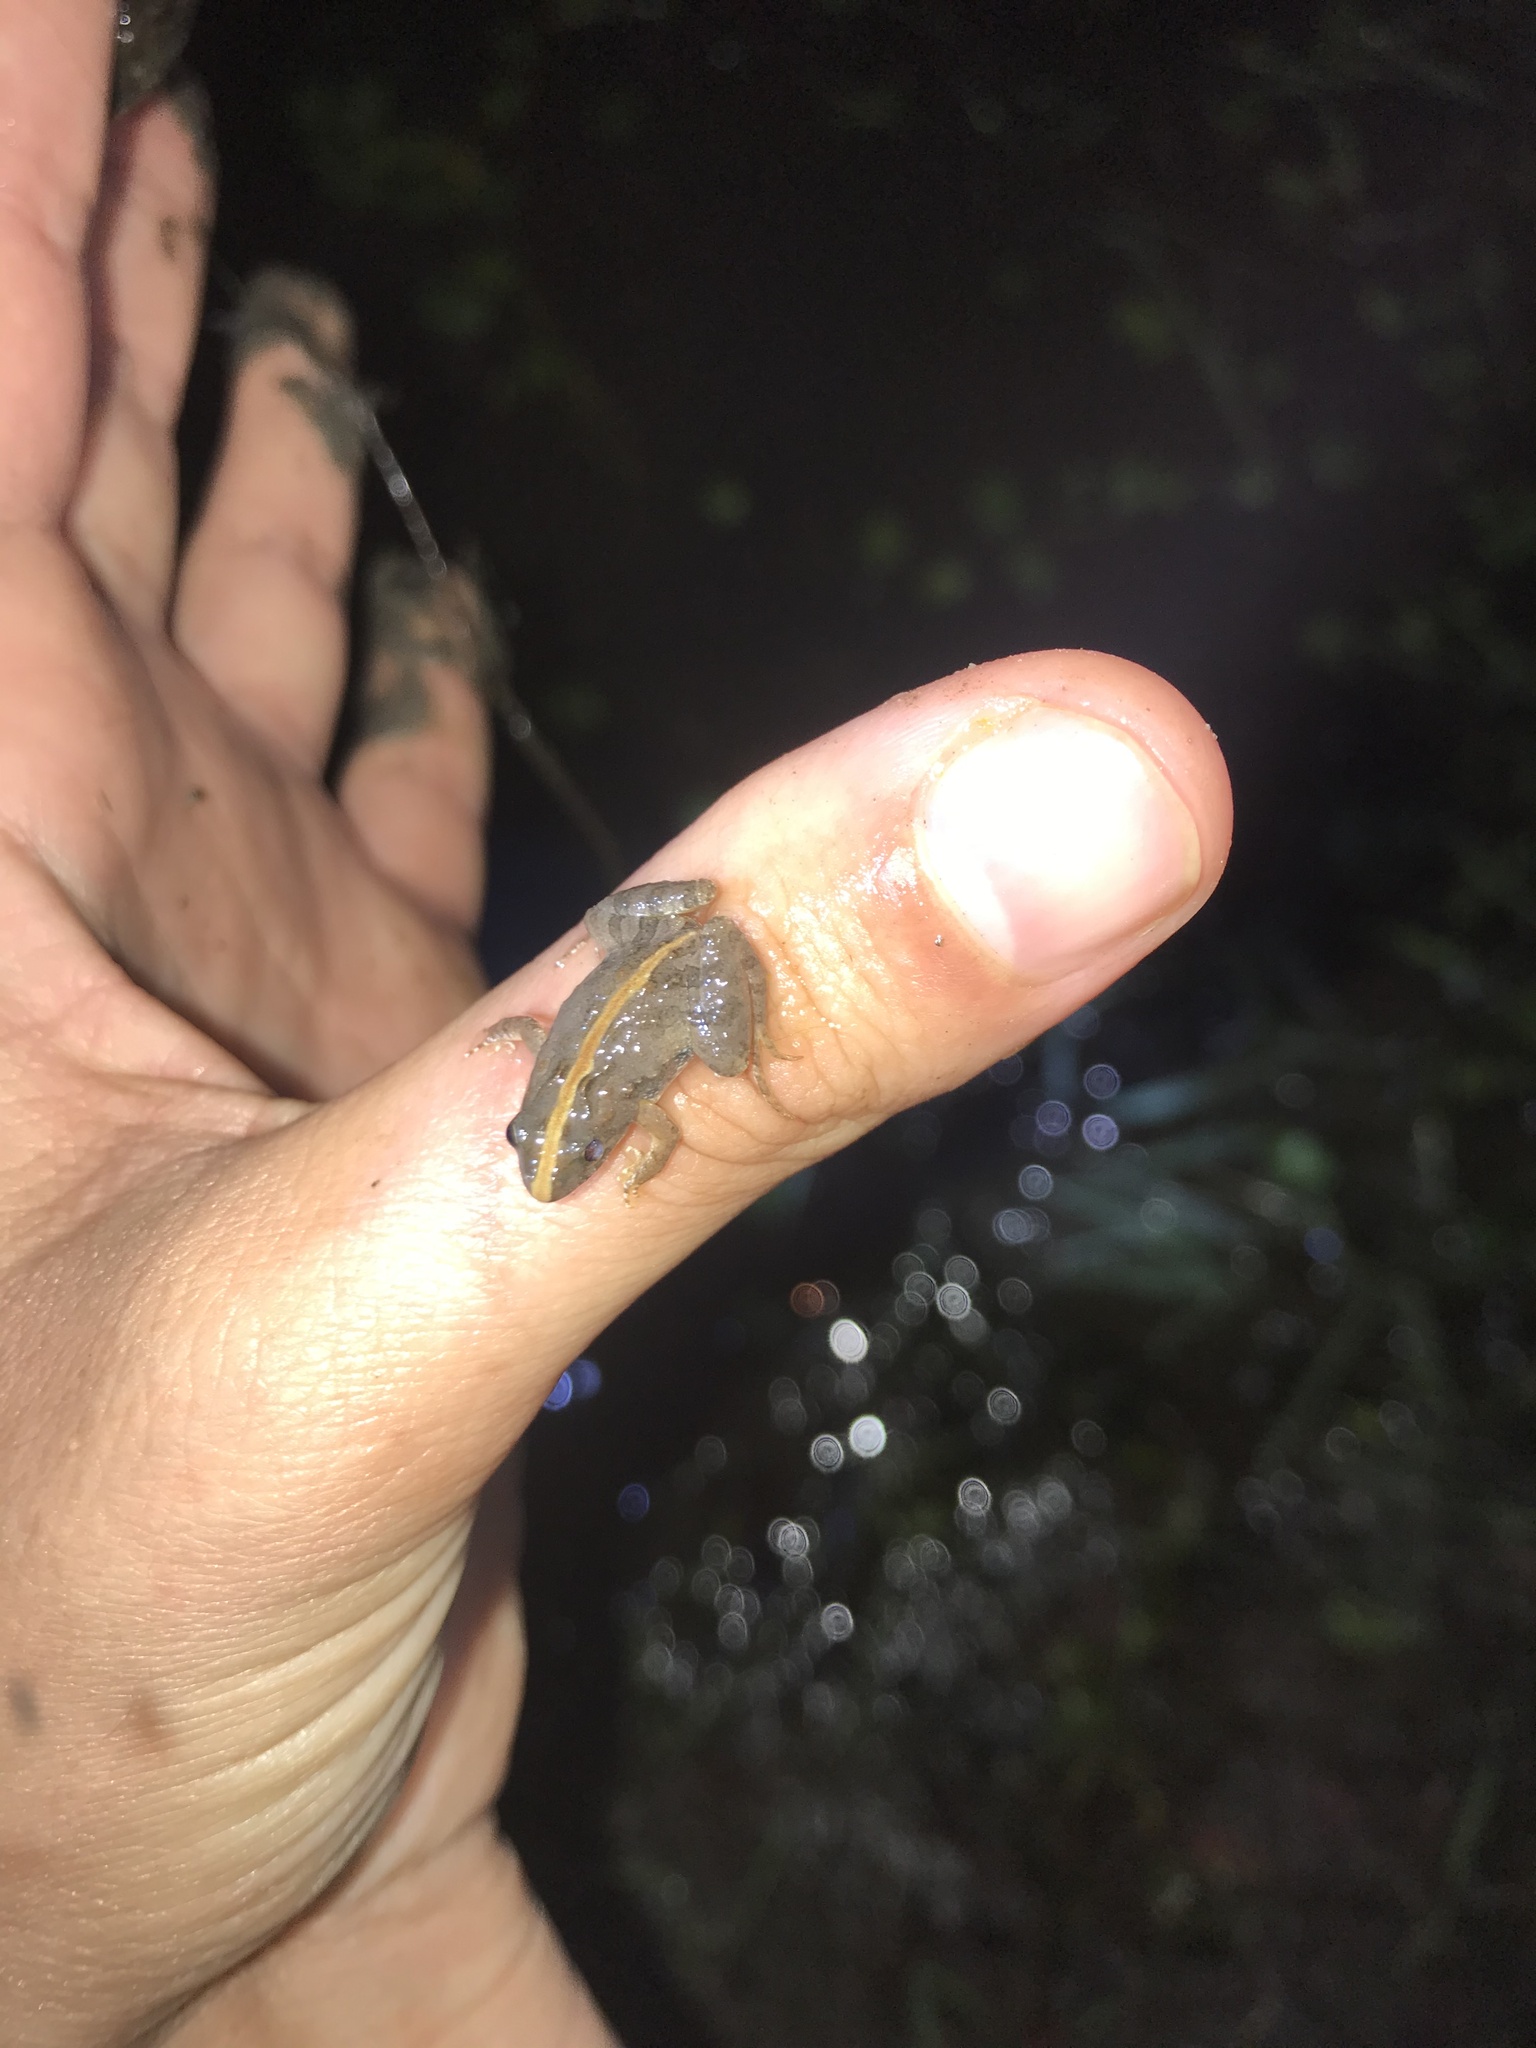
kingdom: Animalia
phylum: Chordata
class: Amphibia
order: Anura
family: Leptodactylidae
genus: Pseudopaludicola
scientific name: Pseudopaludicola falcipes
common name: Hensel’s swamp frog
